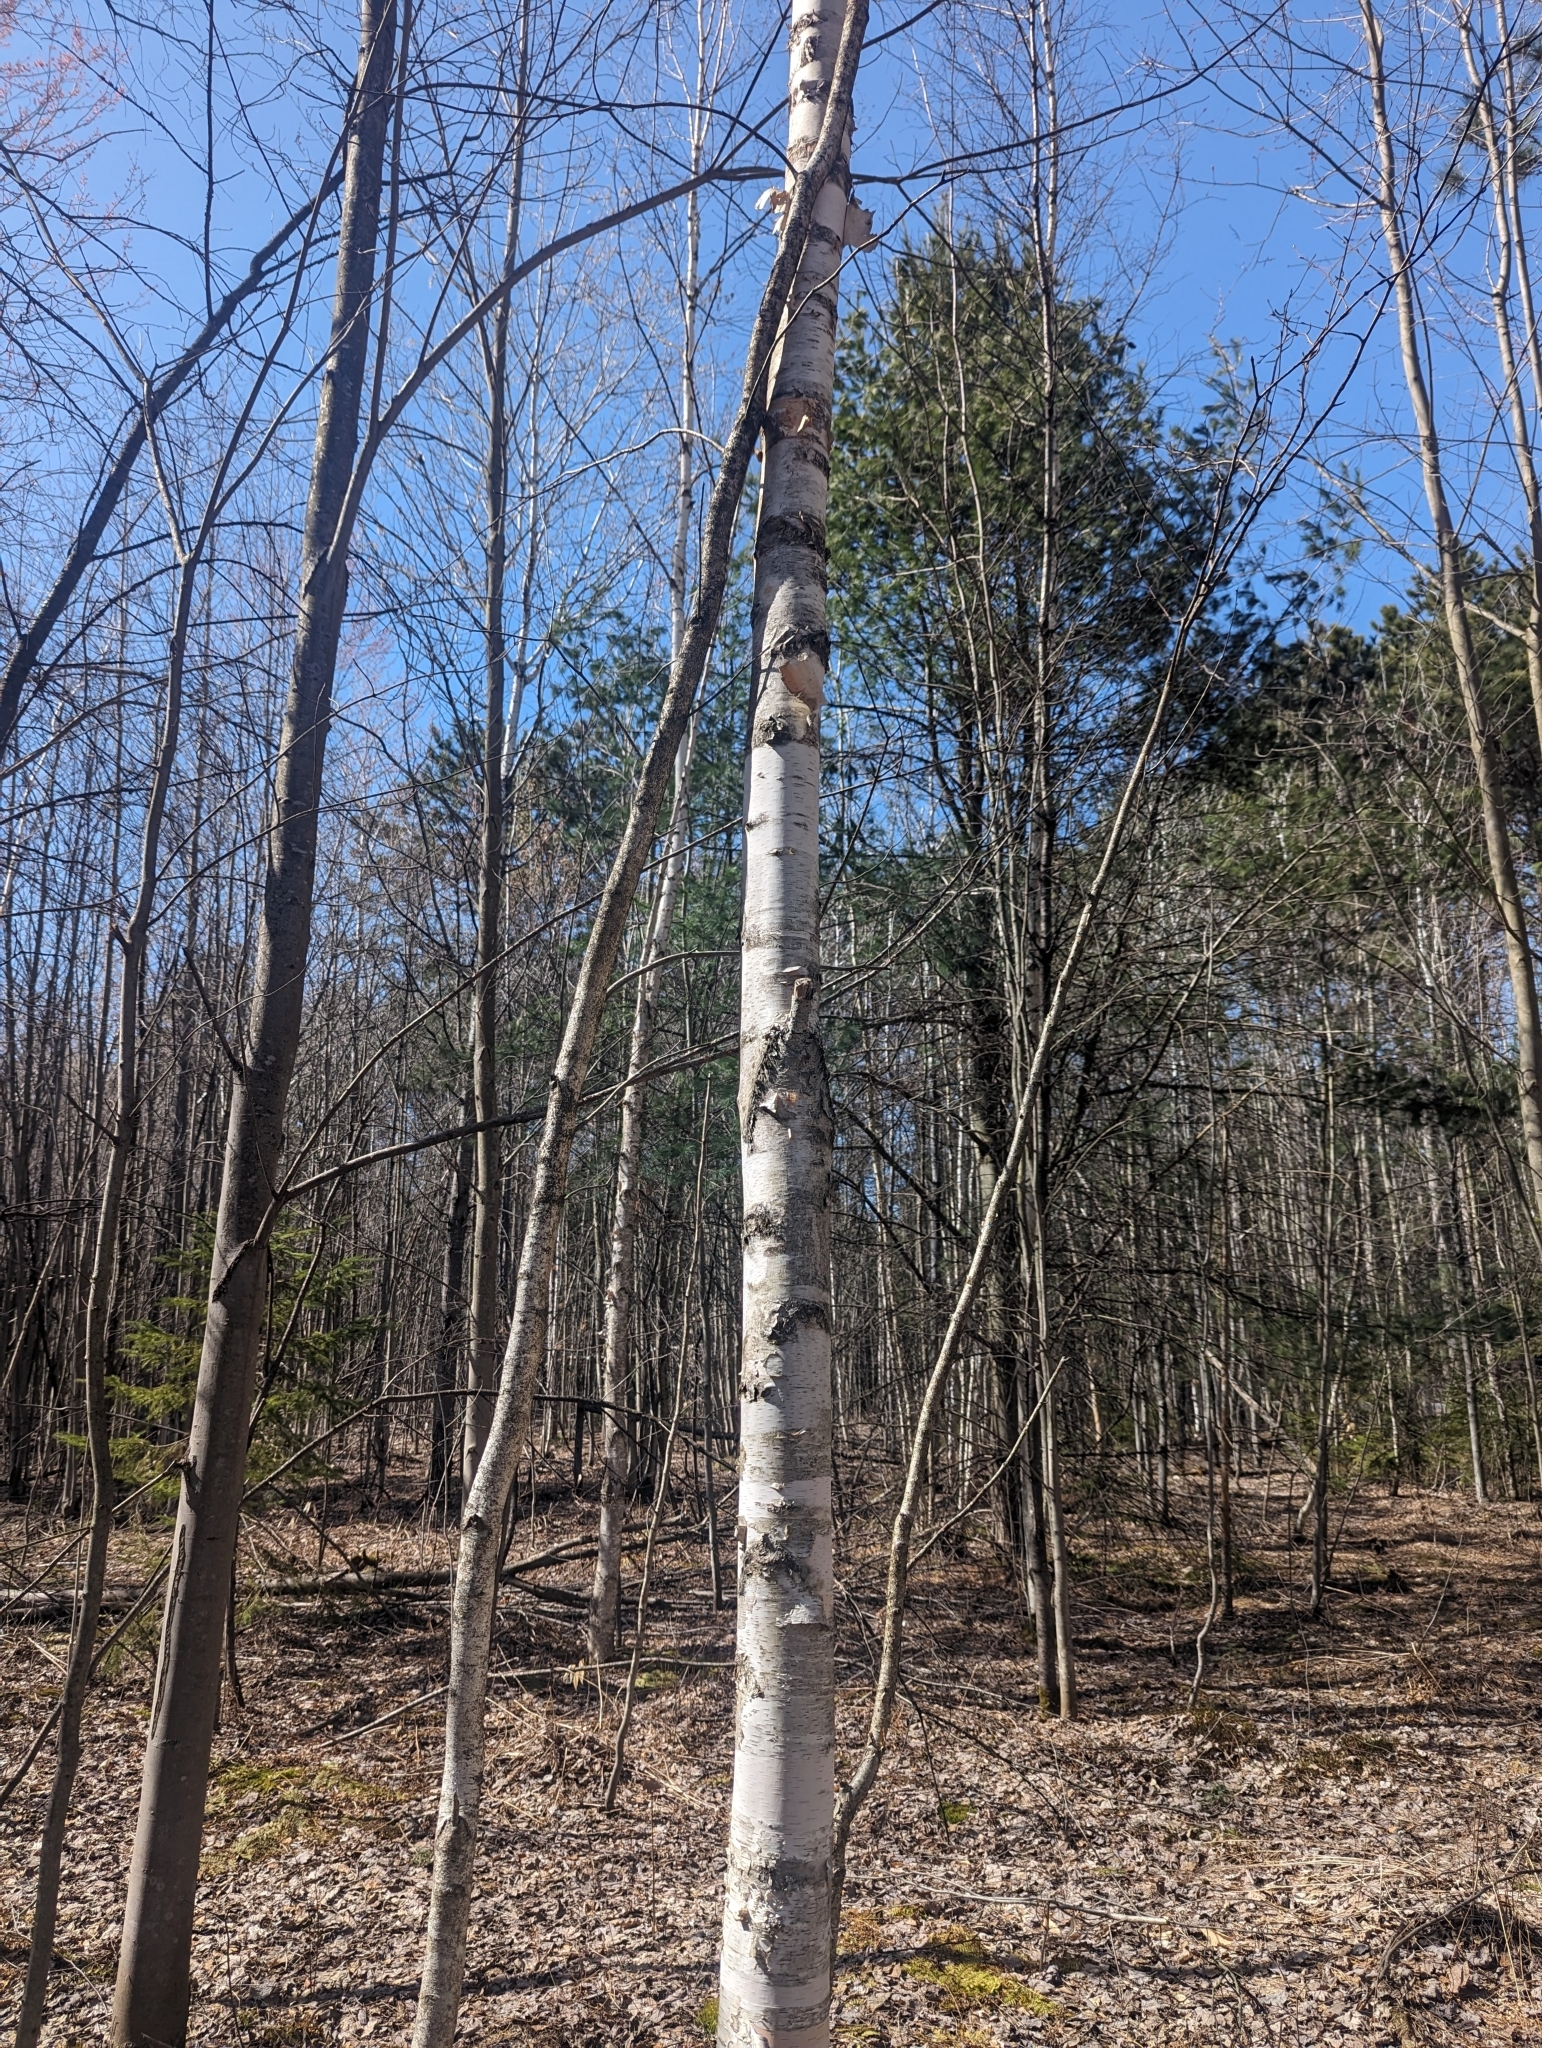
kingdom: Plantae
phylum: Tracheophyta
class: Magnoliopsida
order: Fagales
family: Betulaceae
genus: Betula
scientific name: Betula papyrifera
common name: Paper birch
